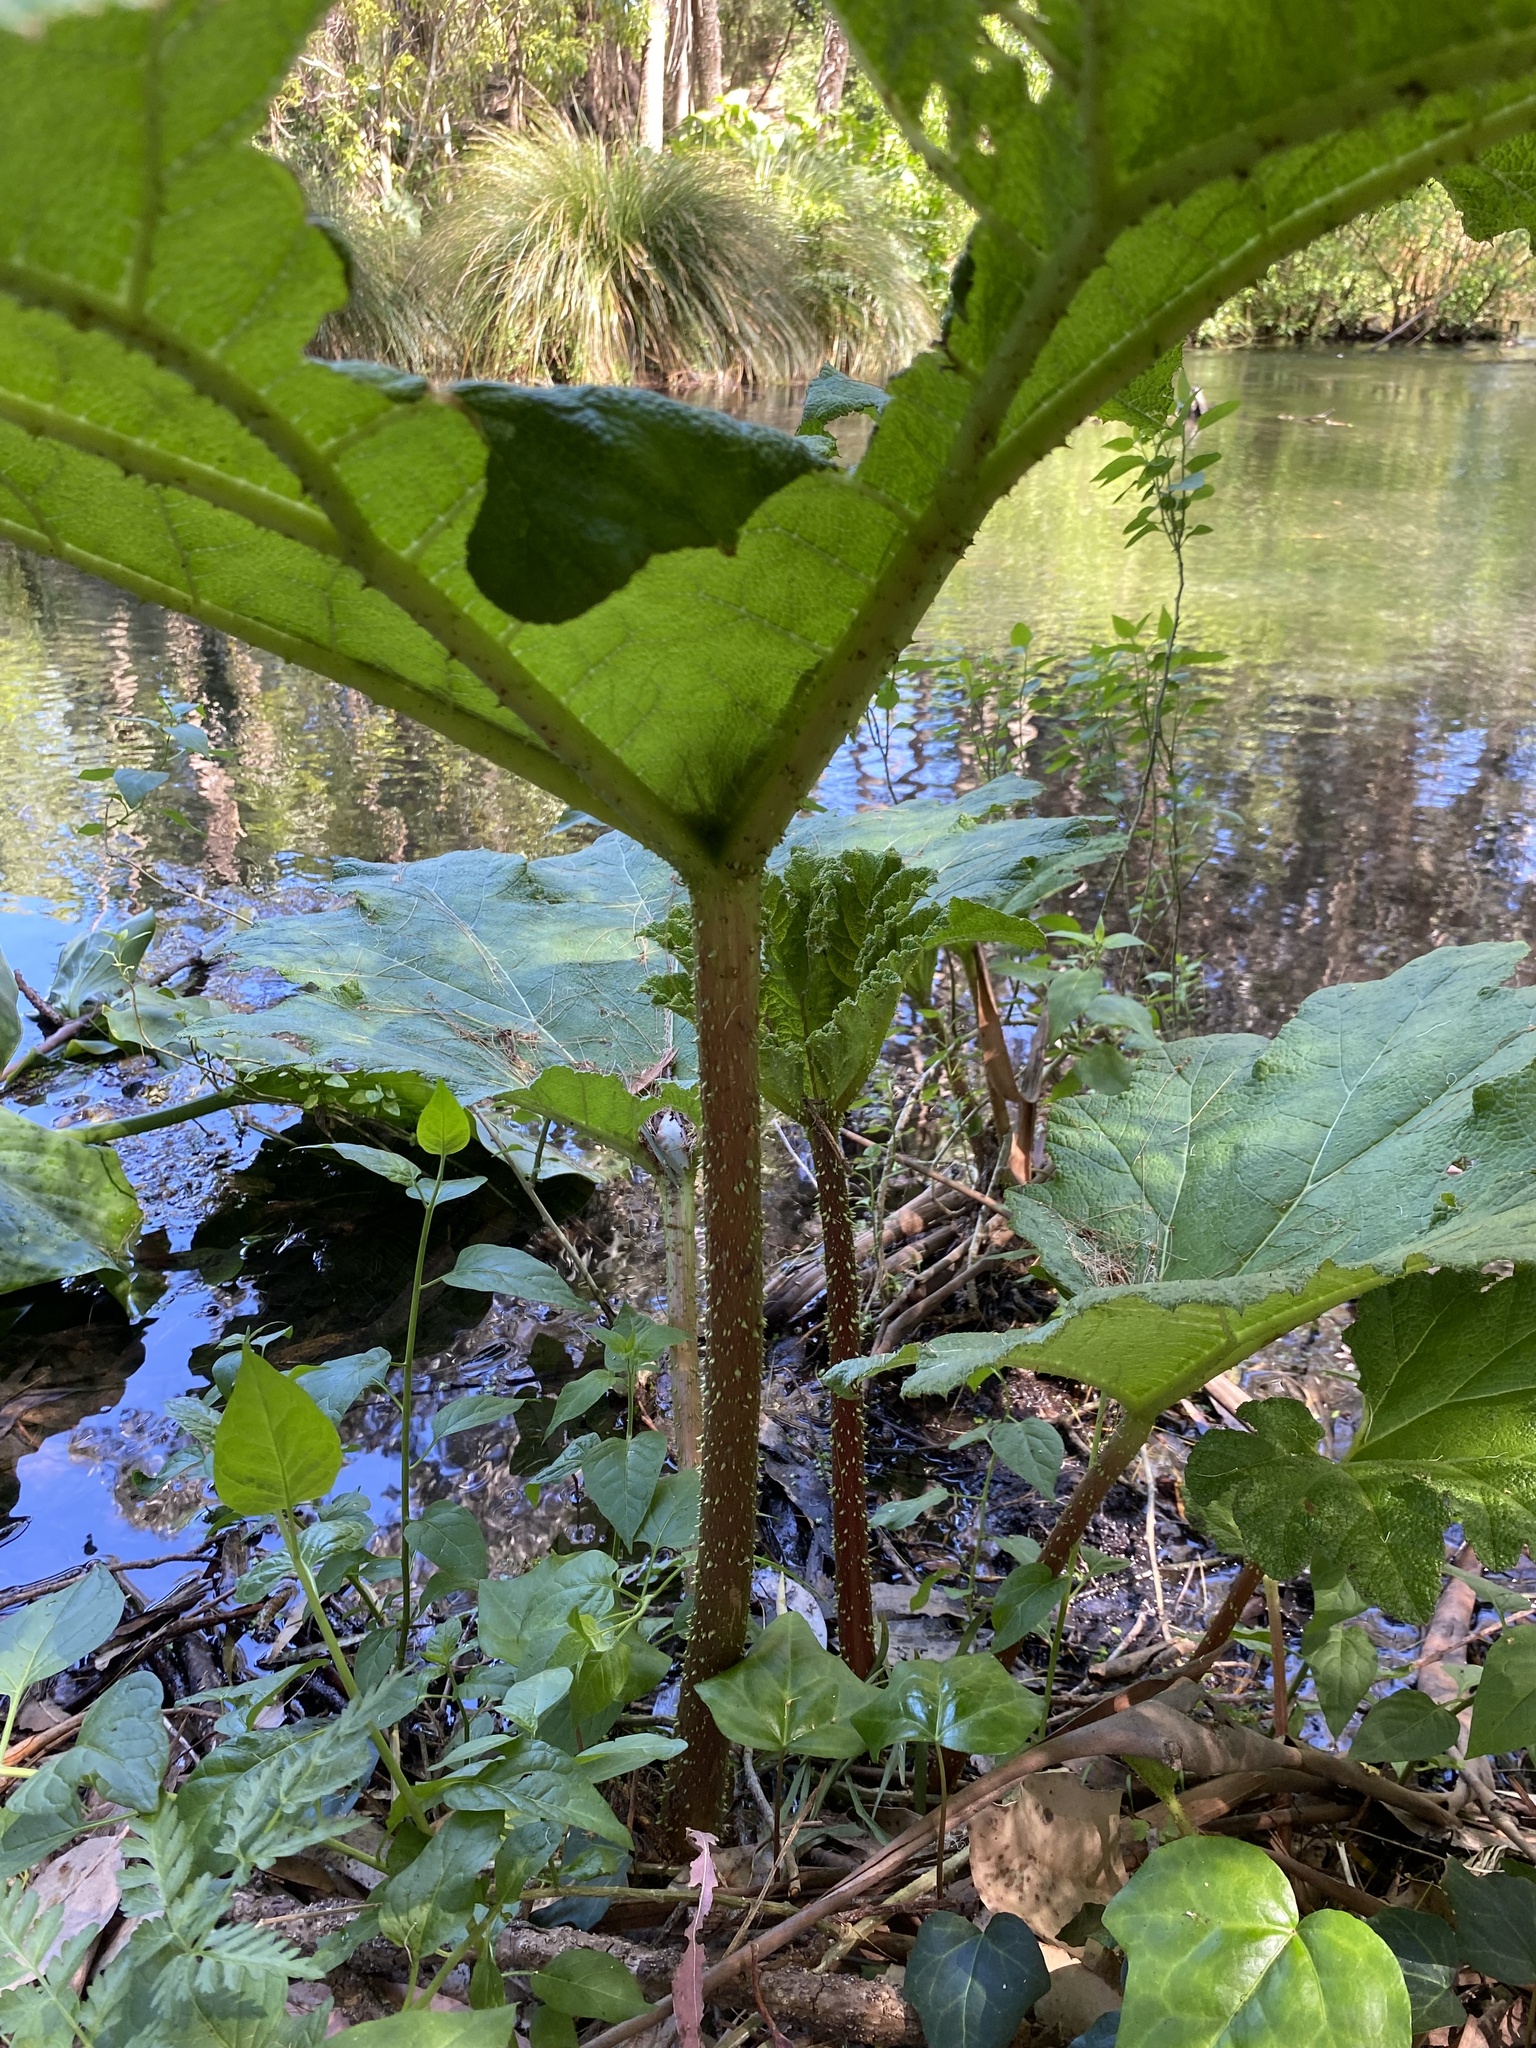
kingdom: Plantae
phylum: Tracheophyta
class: Magnoliopsida
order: Gunnerales
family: Gunneraceae
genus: Gunnera
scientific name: Gunnera tinctoria
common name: Giant-rhubarb
